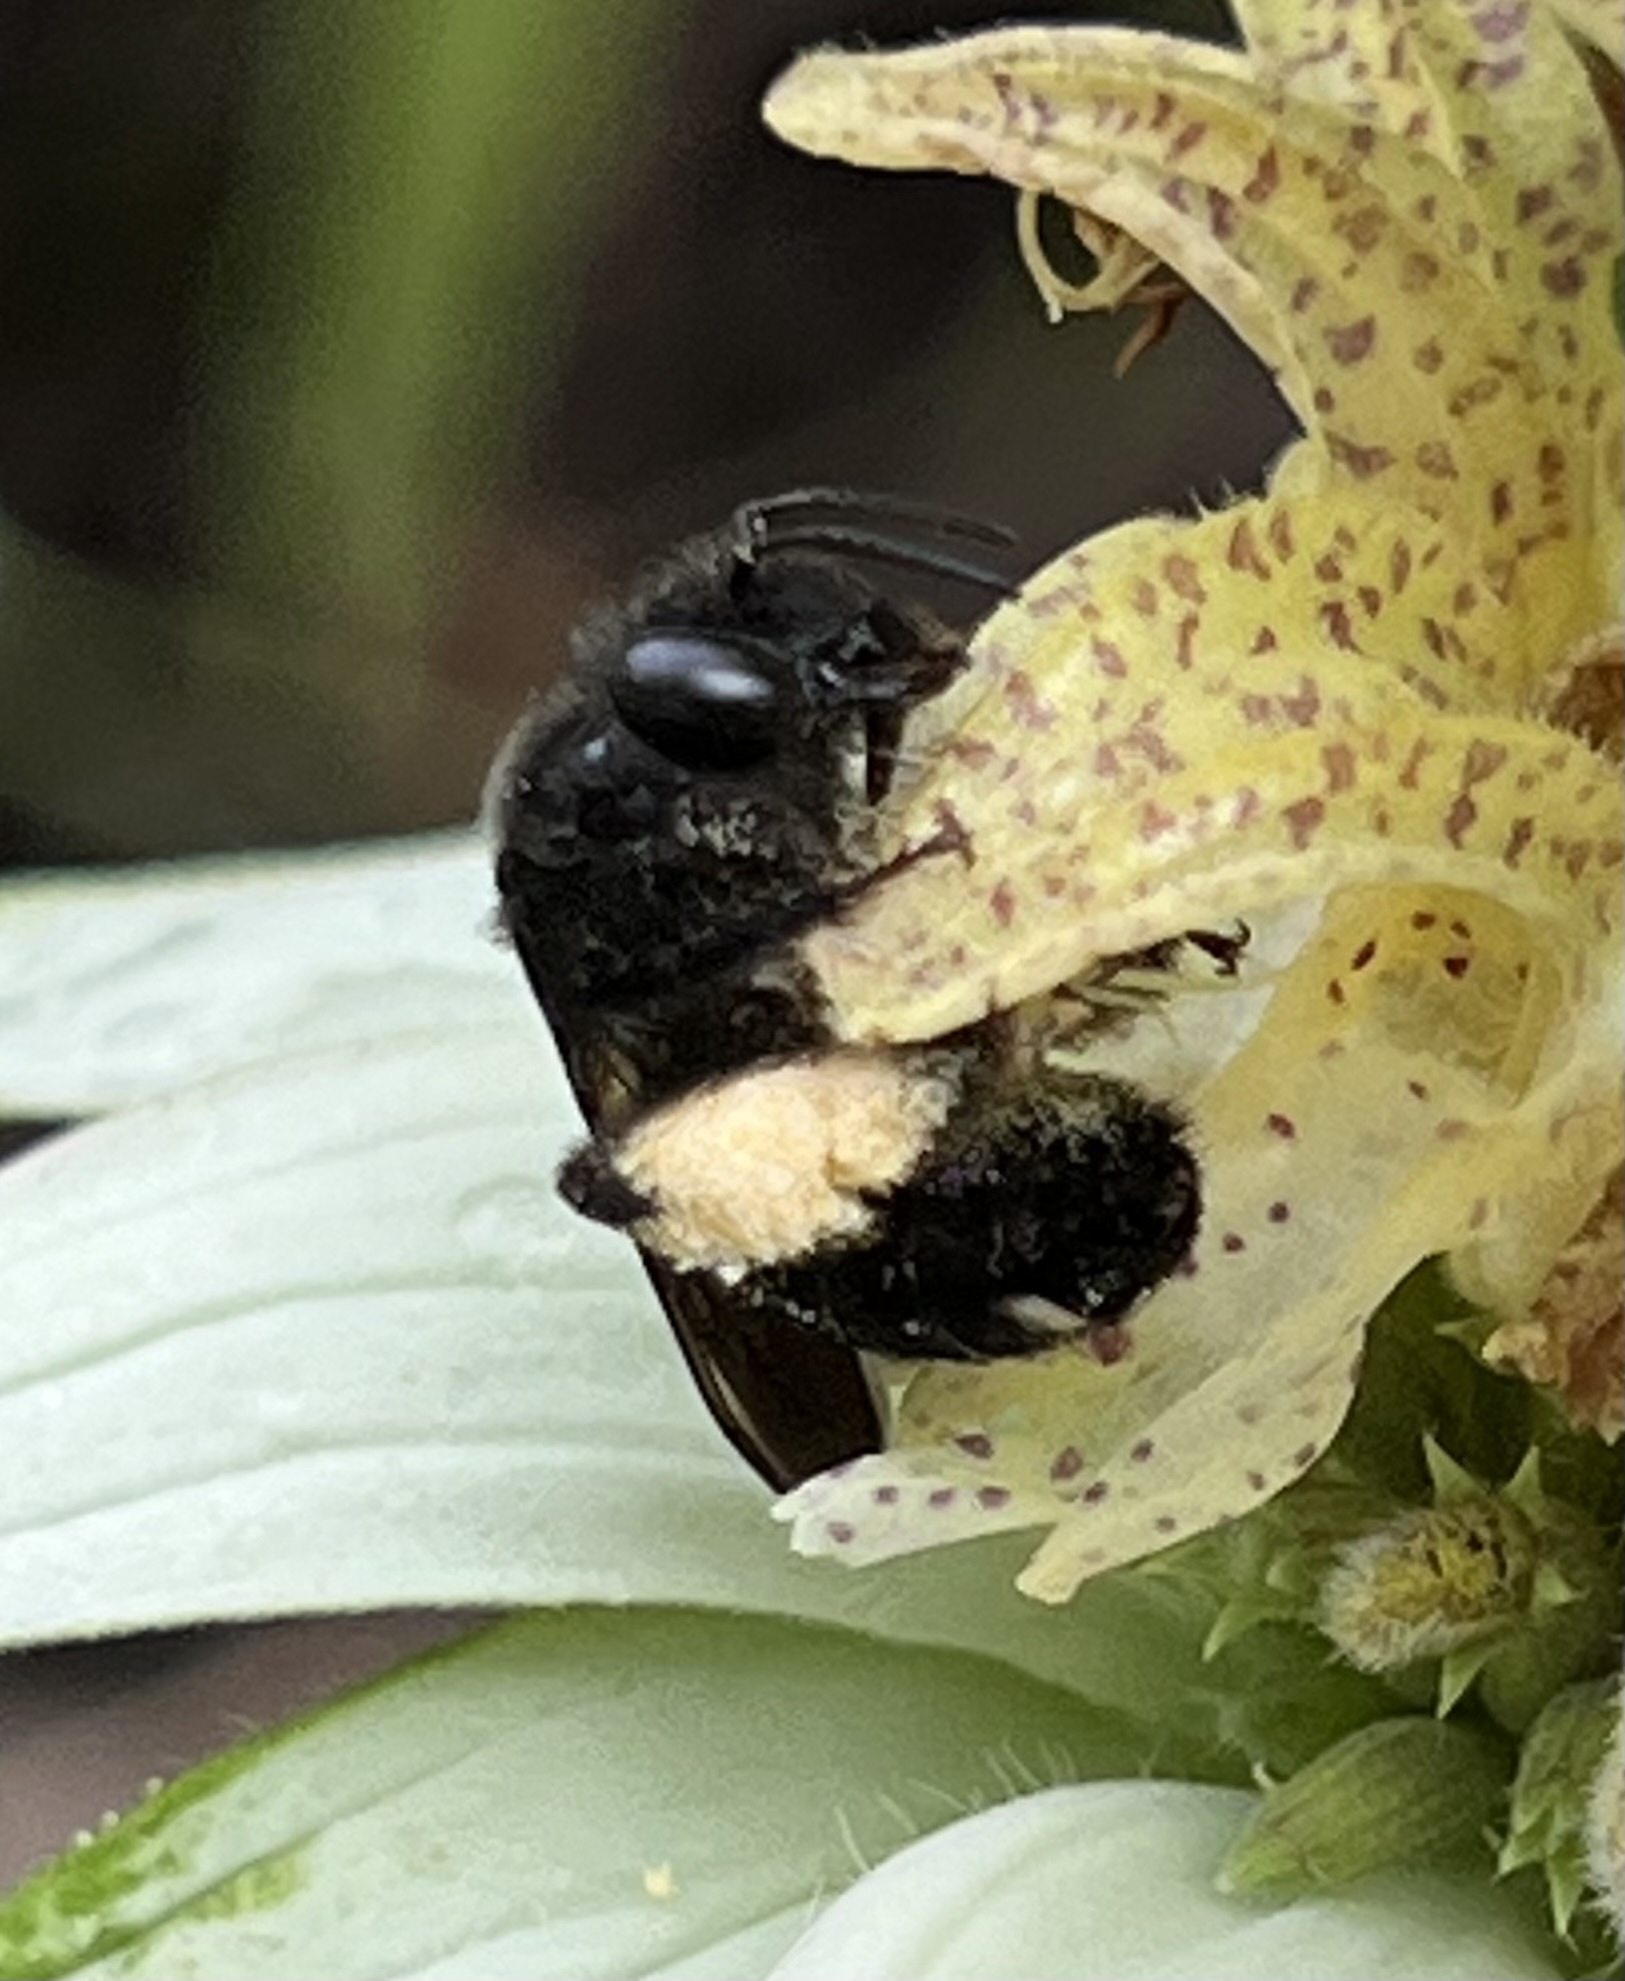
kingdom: Animalia
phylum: Arthropoda
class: Insecta
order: Hymenoptera
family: Apidae
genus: Melissodes
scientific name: Melissodes bimaculatus
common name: Two-spotted long-horned bee
